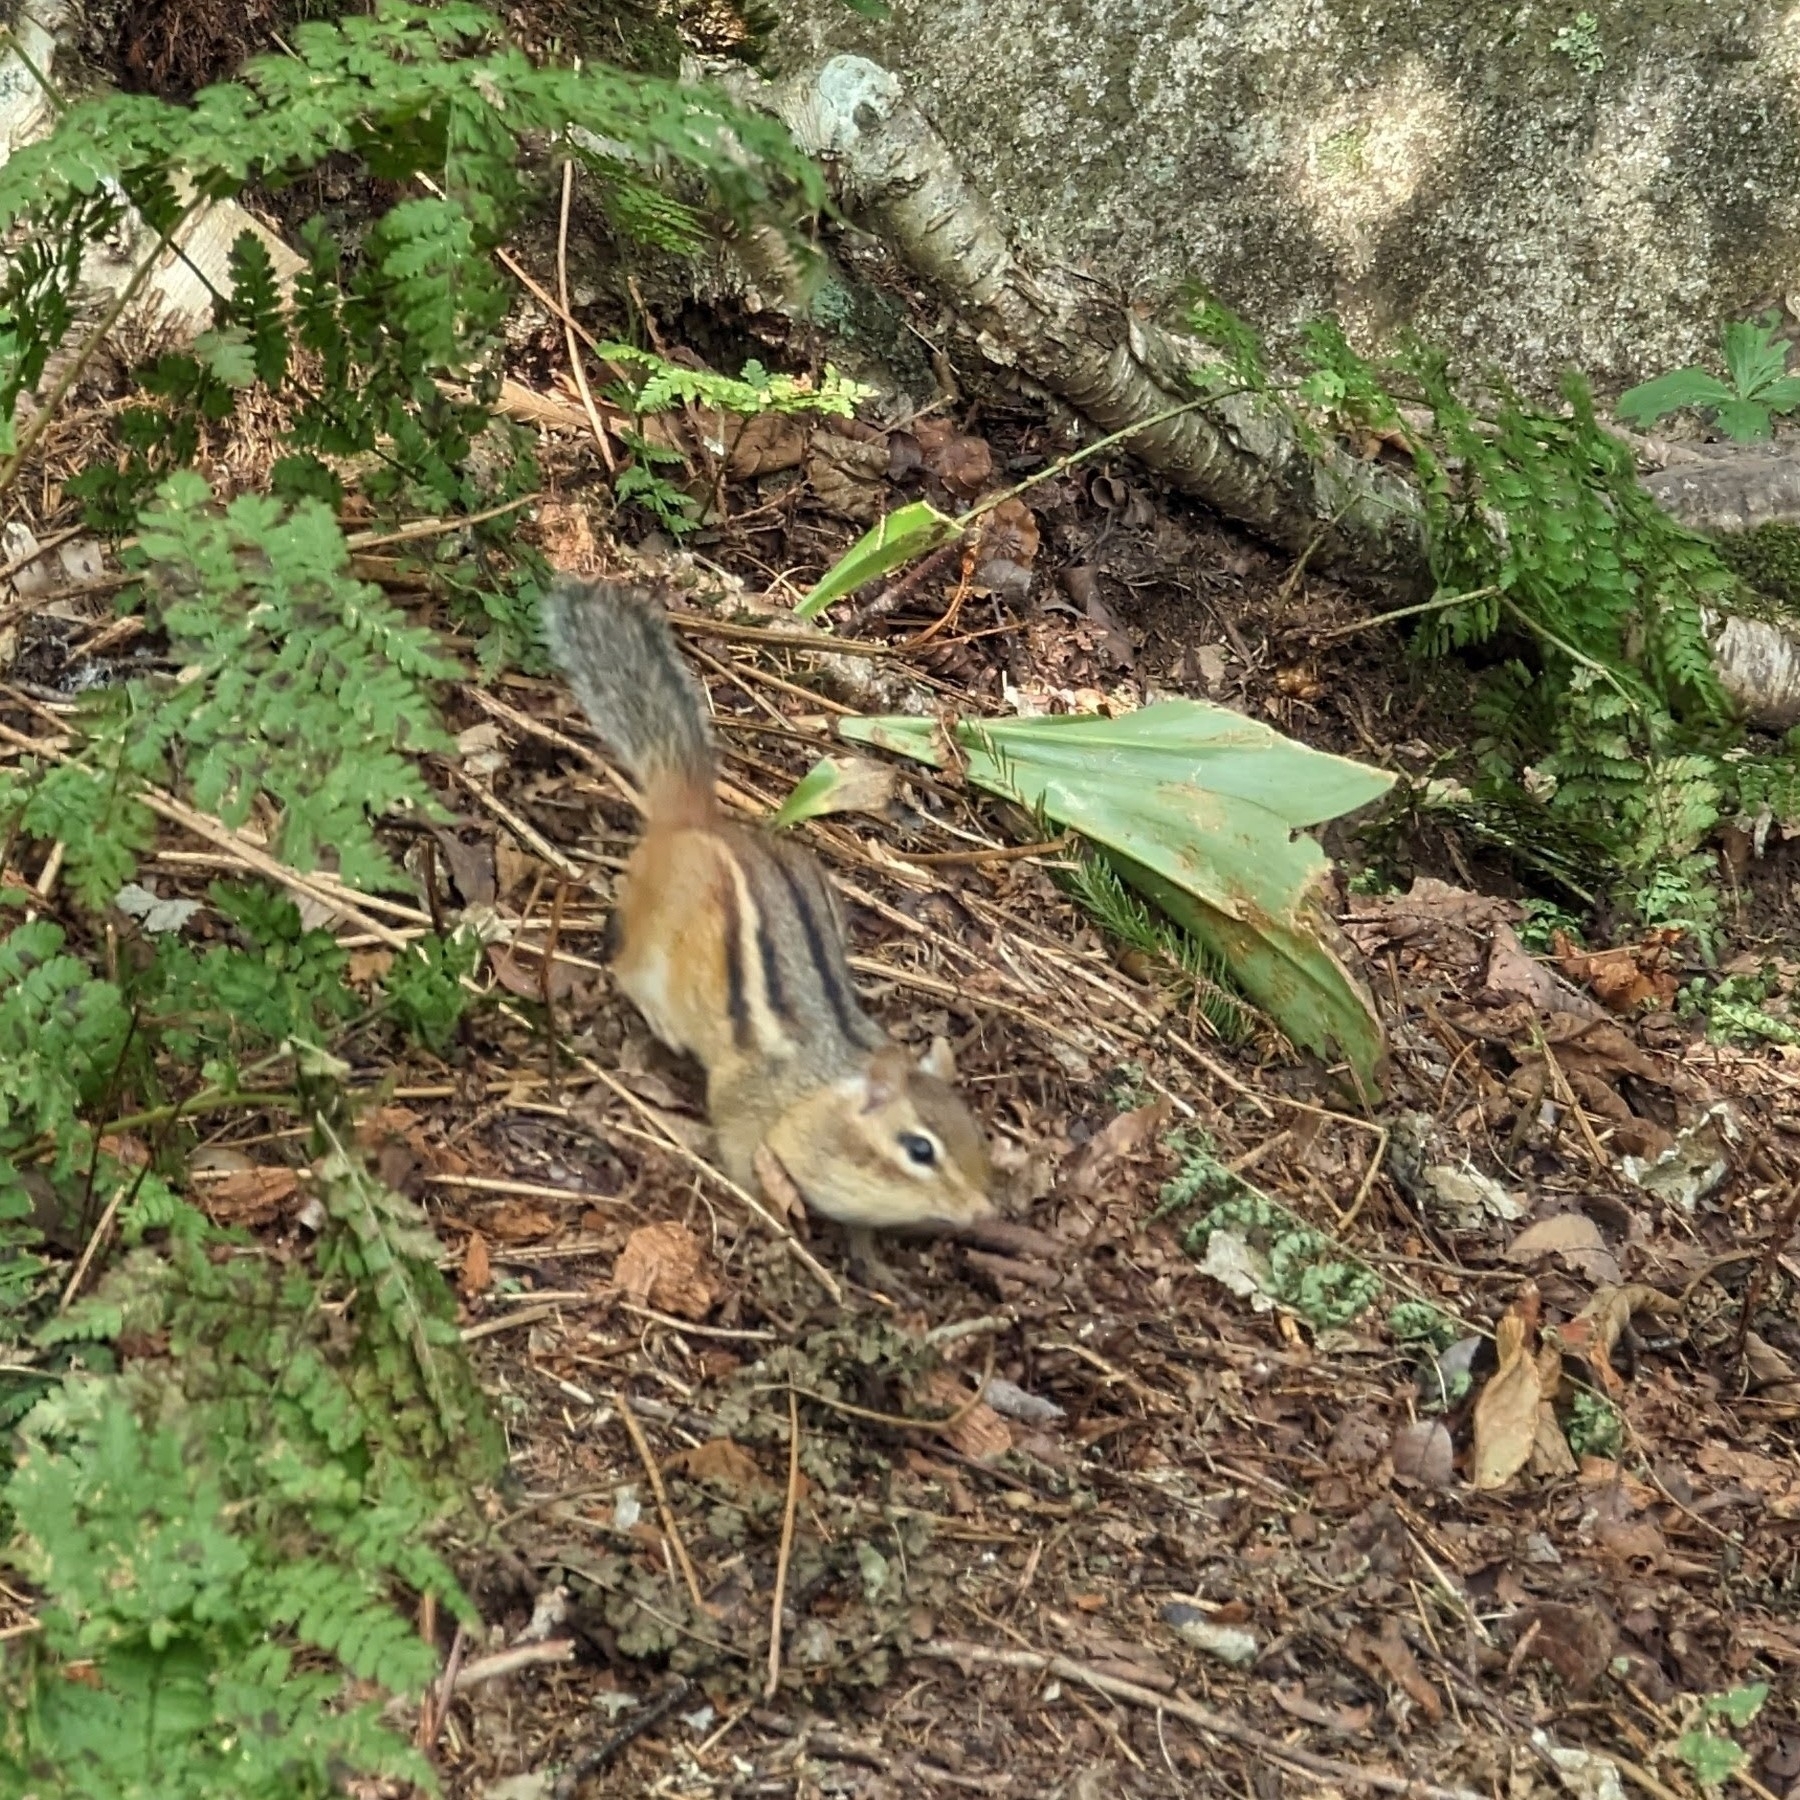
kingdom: Animalia
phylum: Chordata
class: Mammalia
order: Rodentia
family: Sciuridae
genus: Tamias
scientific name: Tamias striatus
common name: Eastern chipmunk
